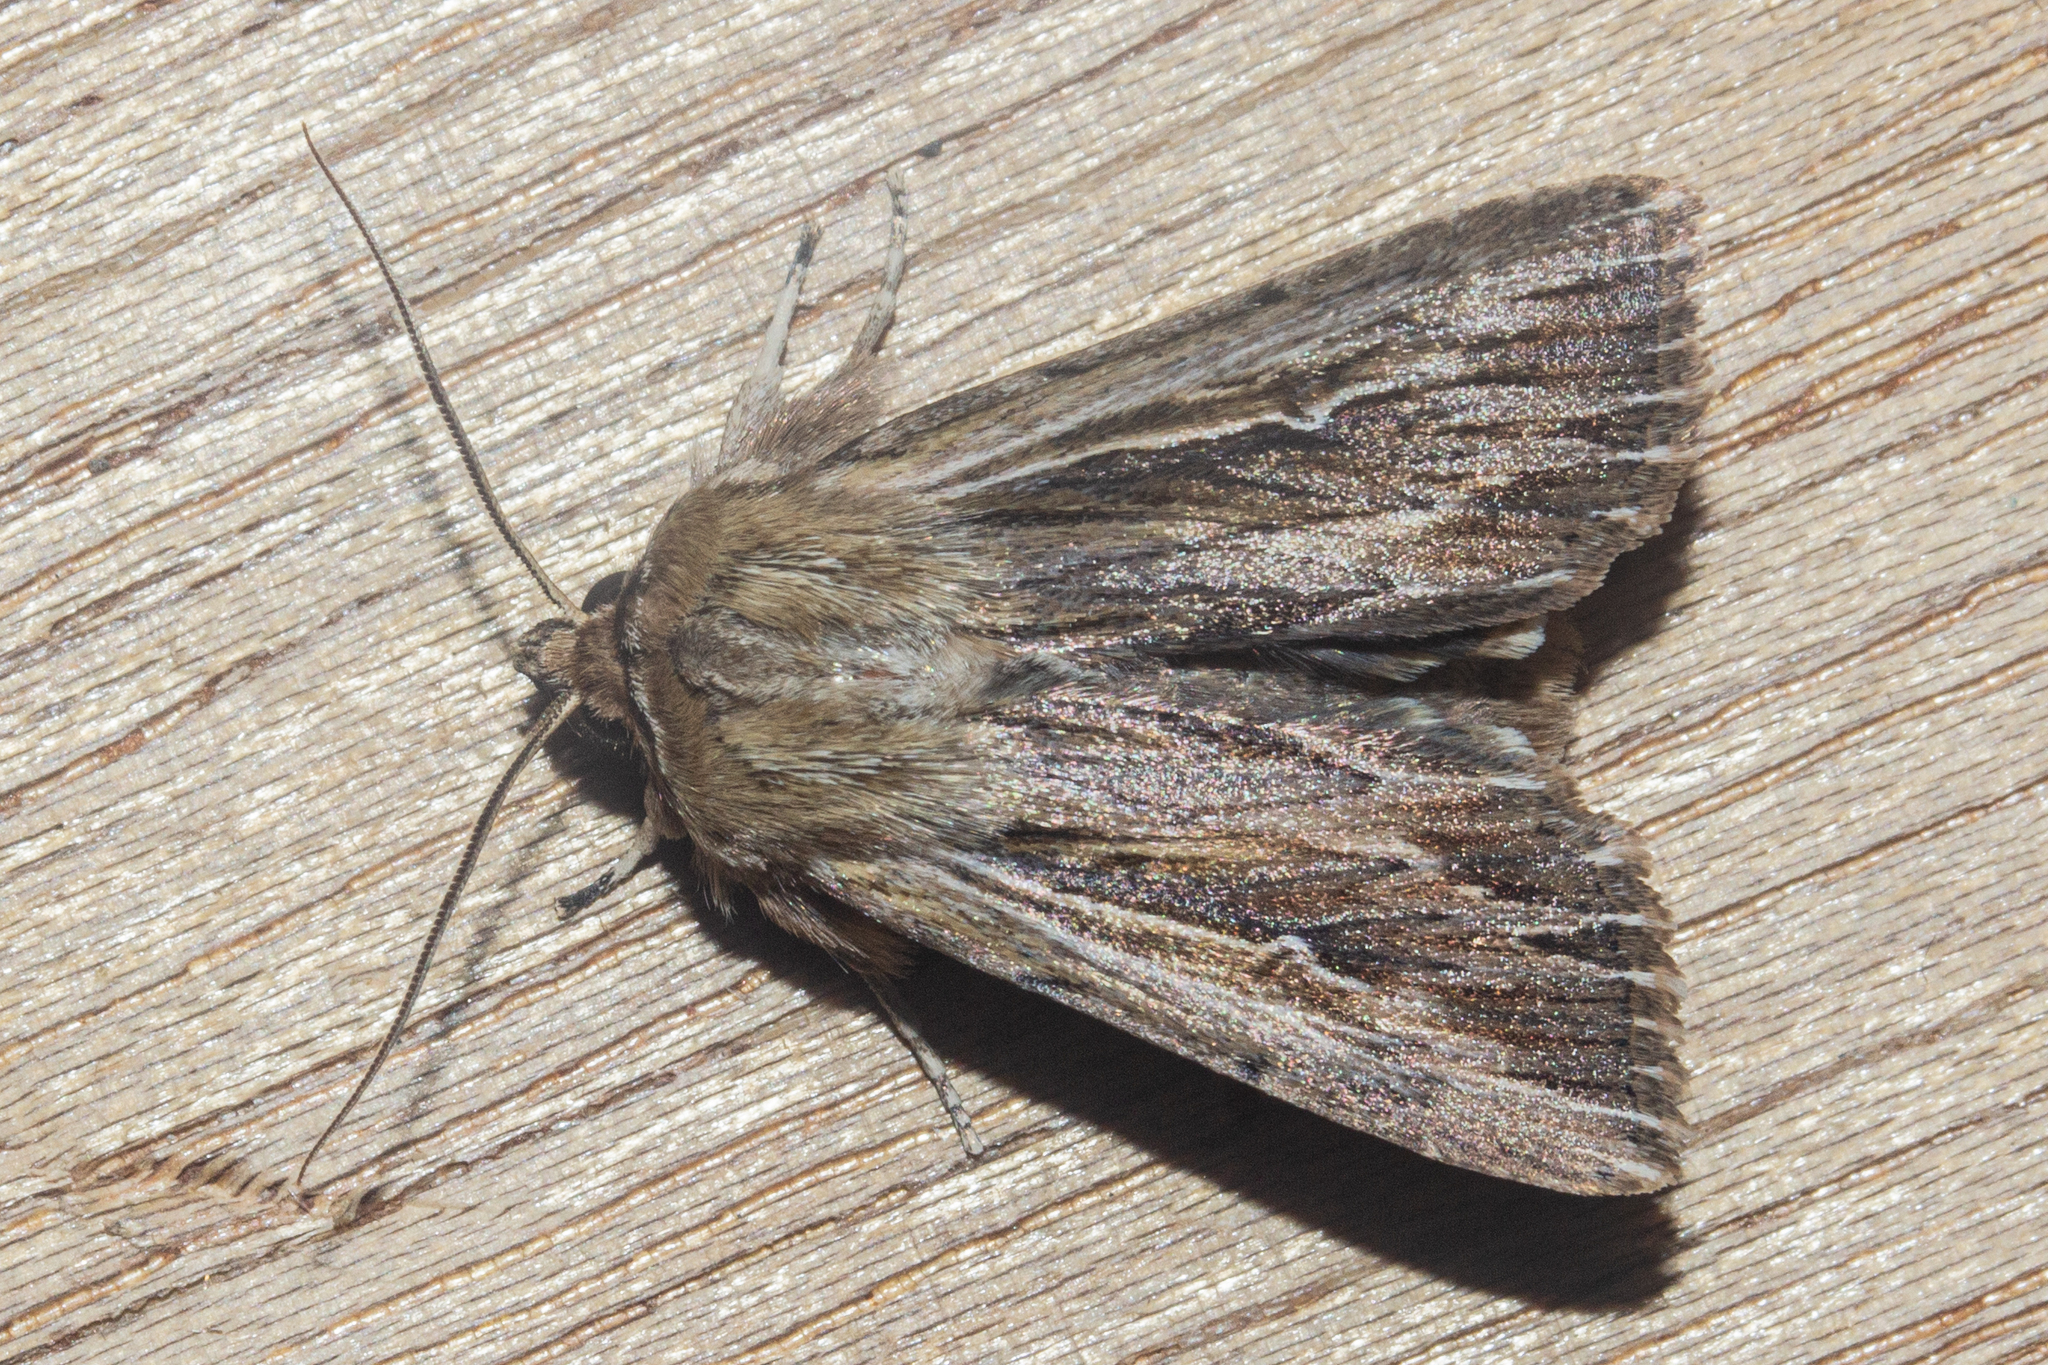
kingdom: Animalia
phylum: Arthropoda
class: Insecta
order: Lepidoptera
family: Noctuidae
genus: Persectania
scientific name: Persectania aversa
